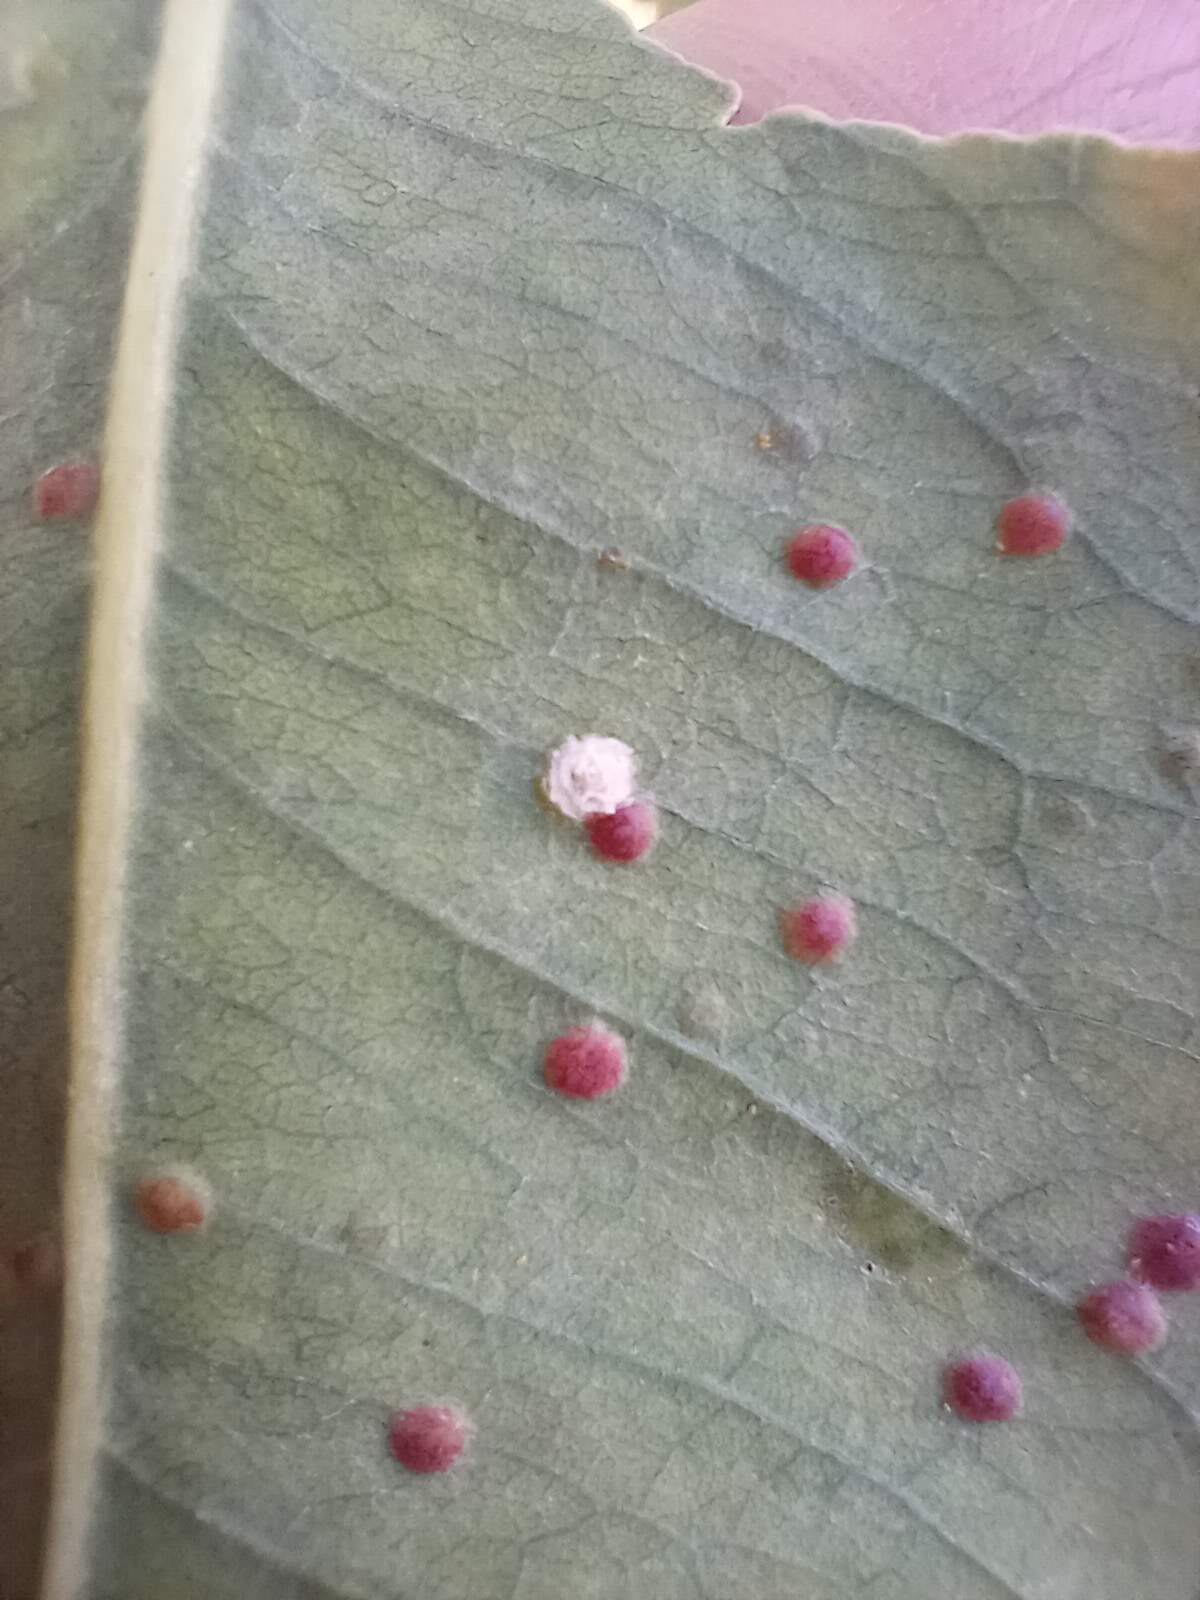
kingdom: Animalia
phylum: Arthropoda
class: Insecta
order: Hemiptera
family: Aphalaridae
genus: Glycaspis
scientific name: Glycaspis brimblecombei
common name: Red gum lerp psyllid
